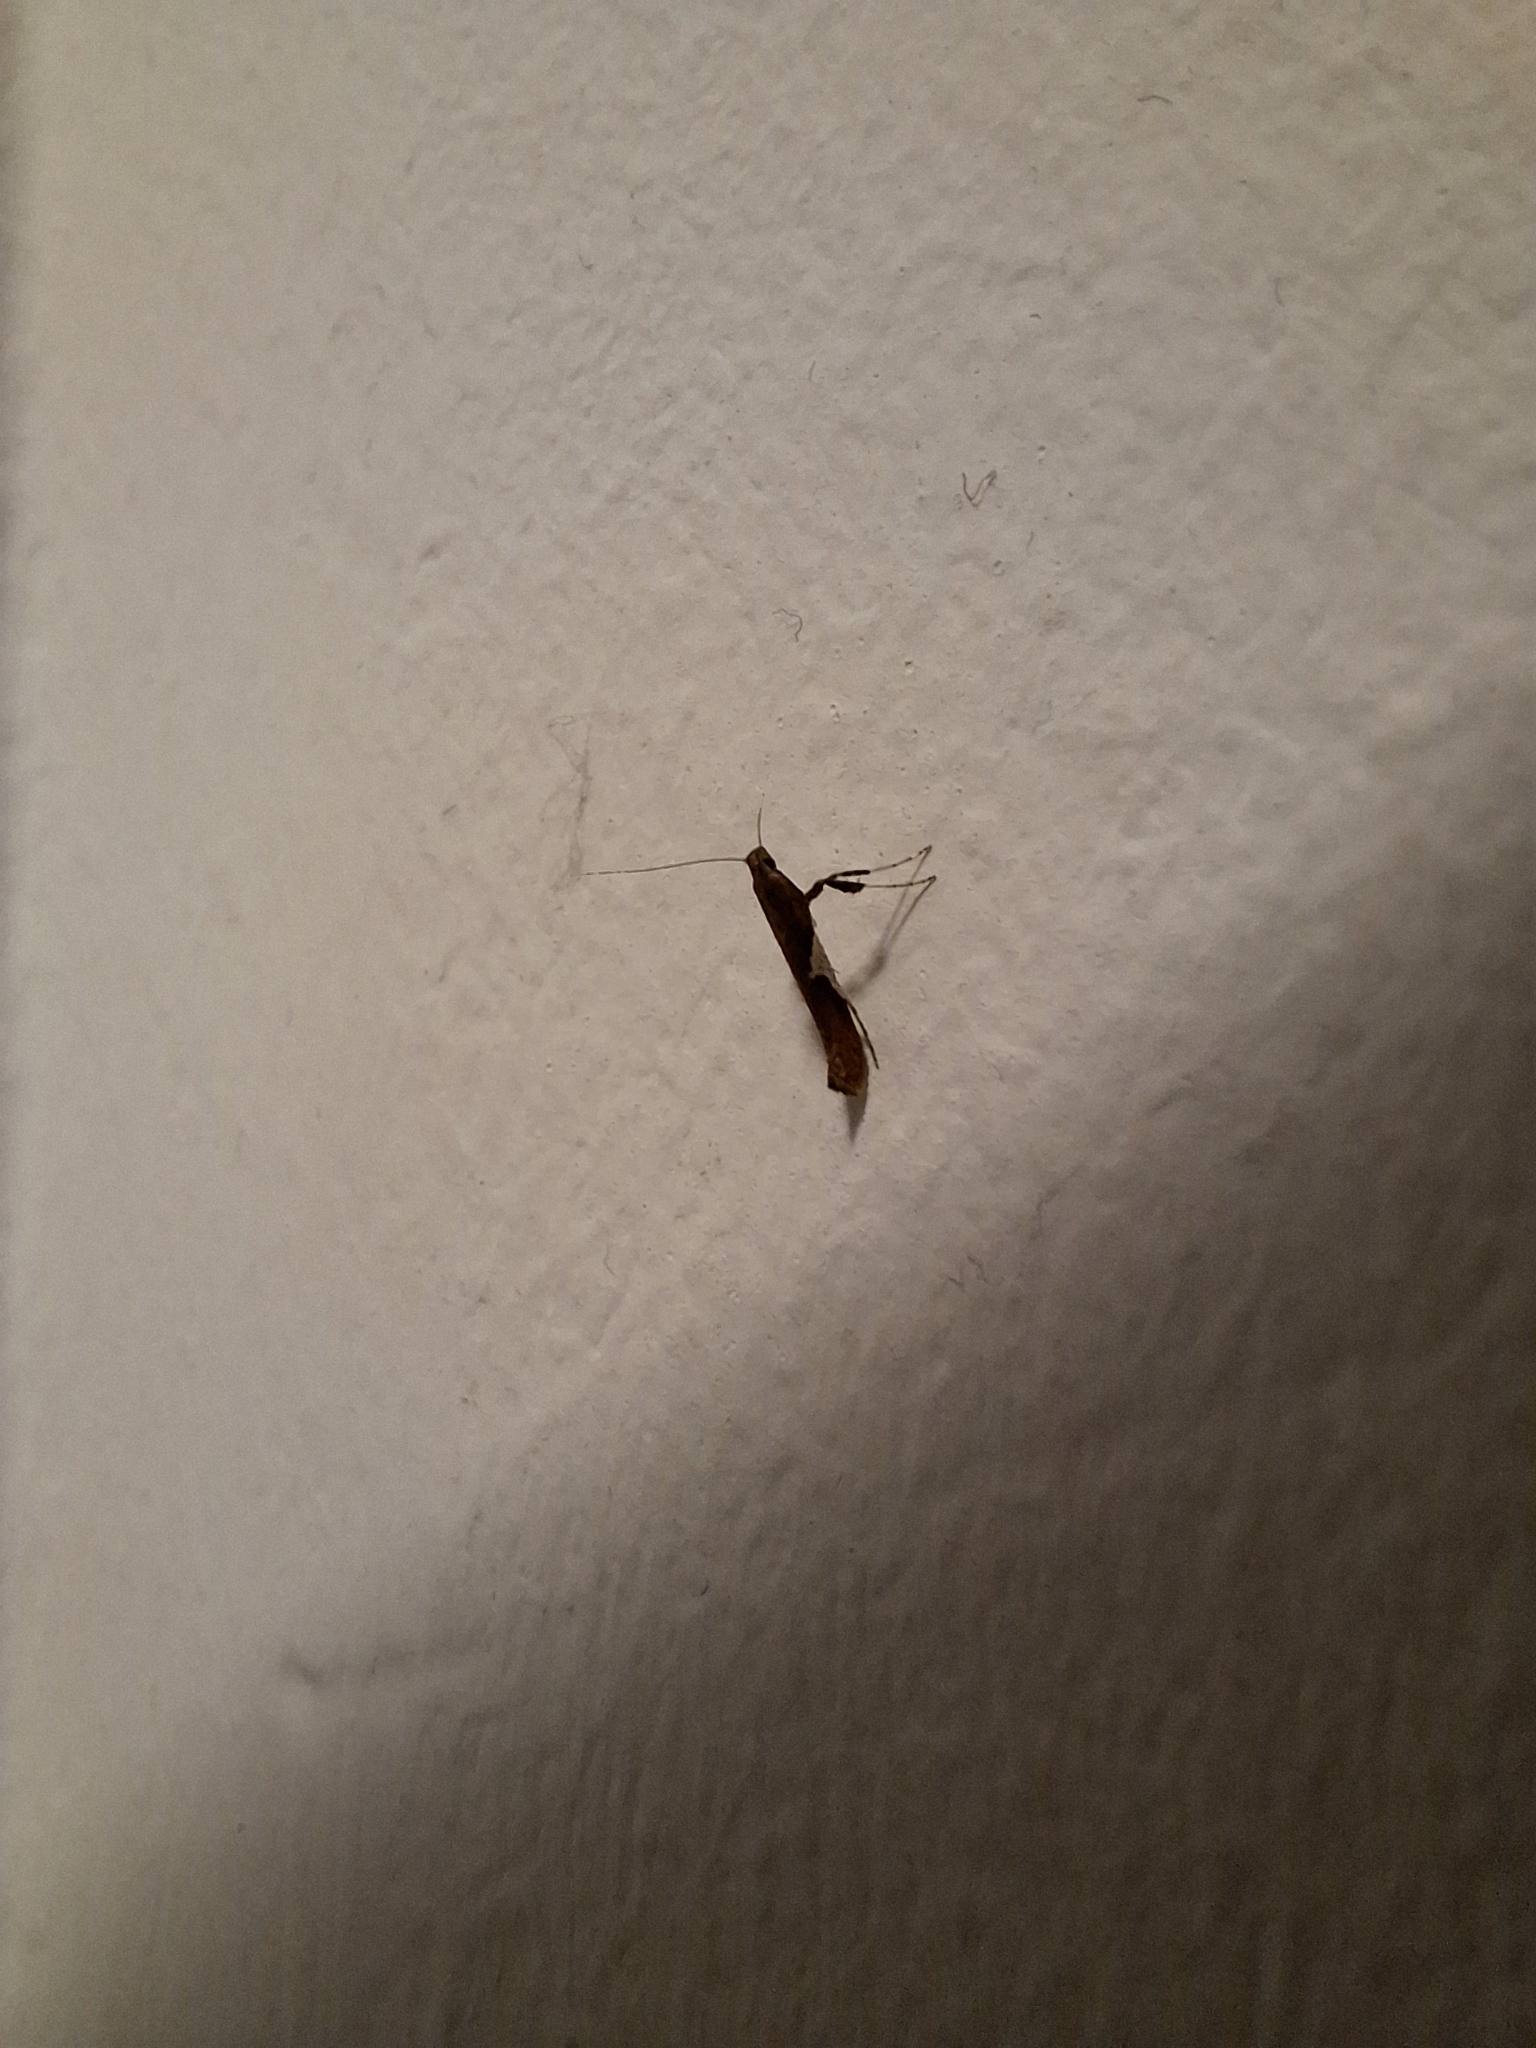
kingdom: Animalia
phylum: Arthropoda
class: Insecta
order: Lepidoptera
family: Gracillariidae
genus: Caloptilia
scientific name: Caloptilia stigmatella
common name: White-triangle slender
